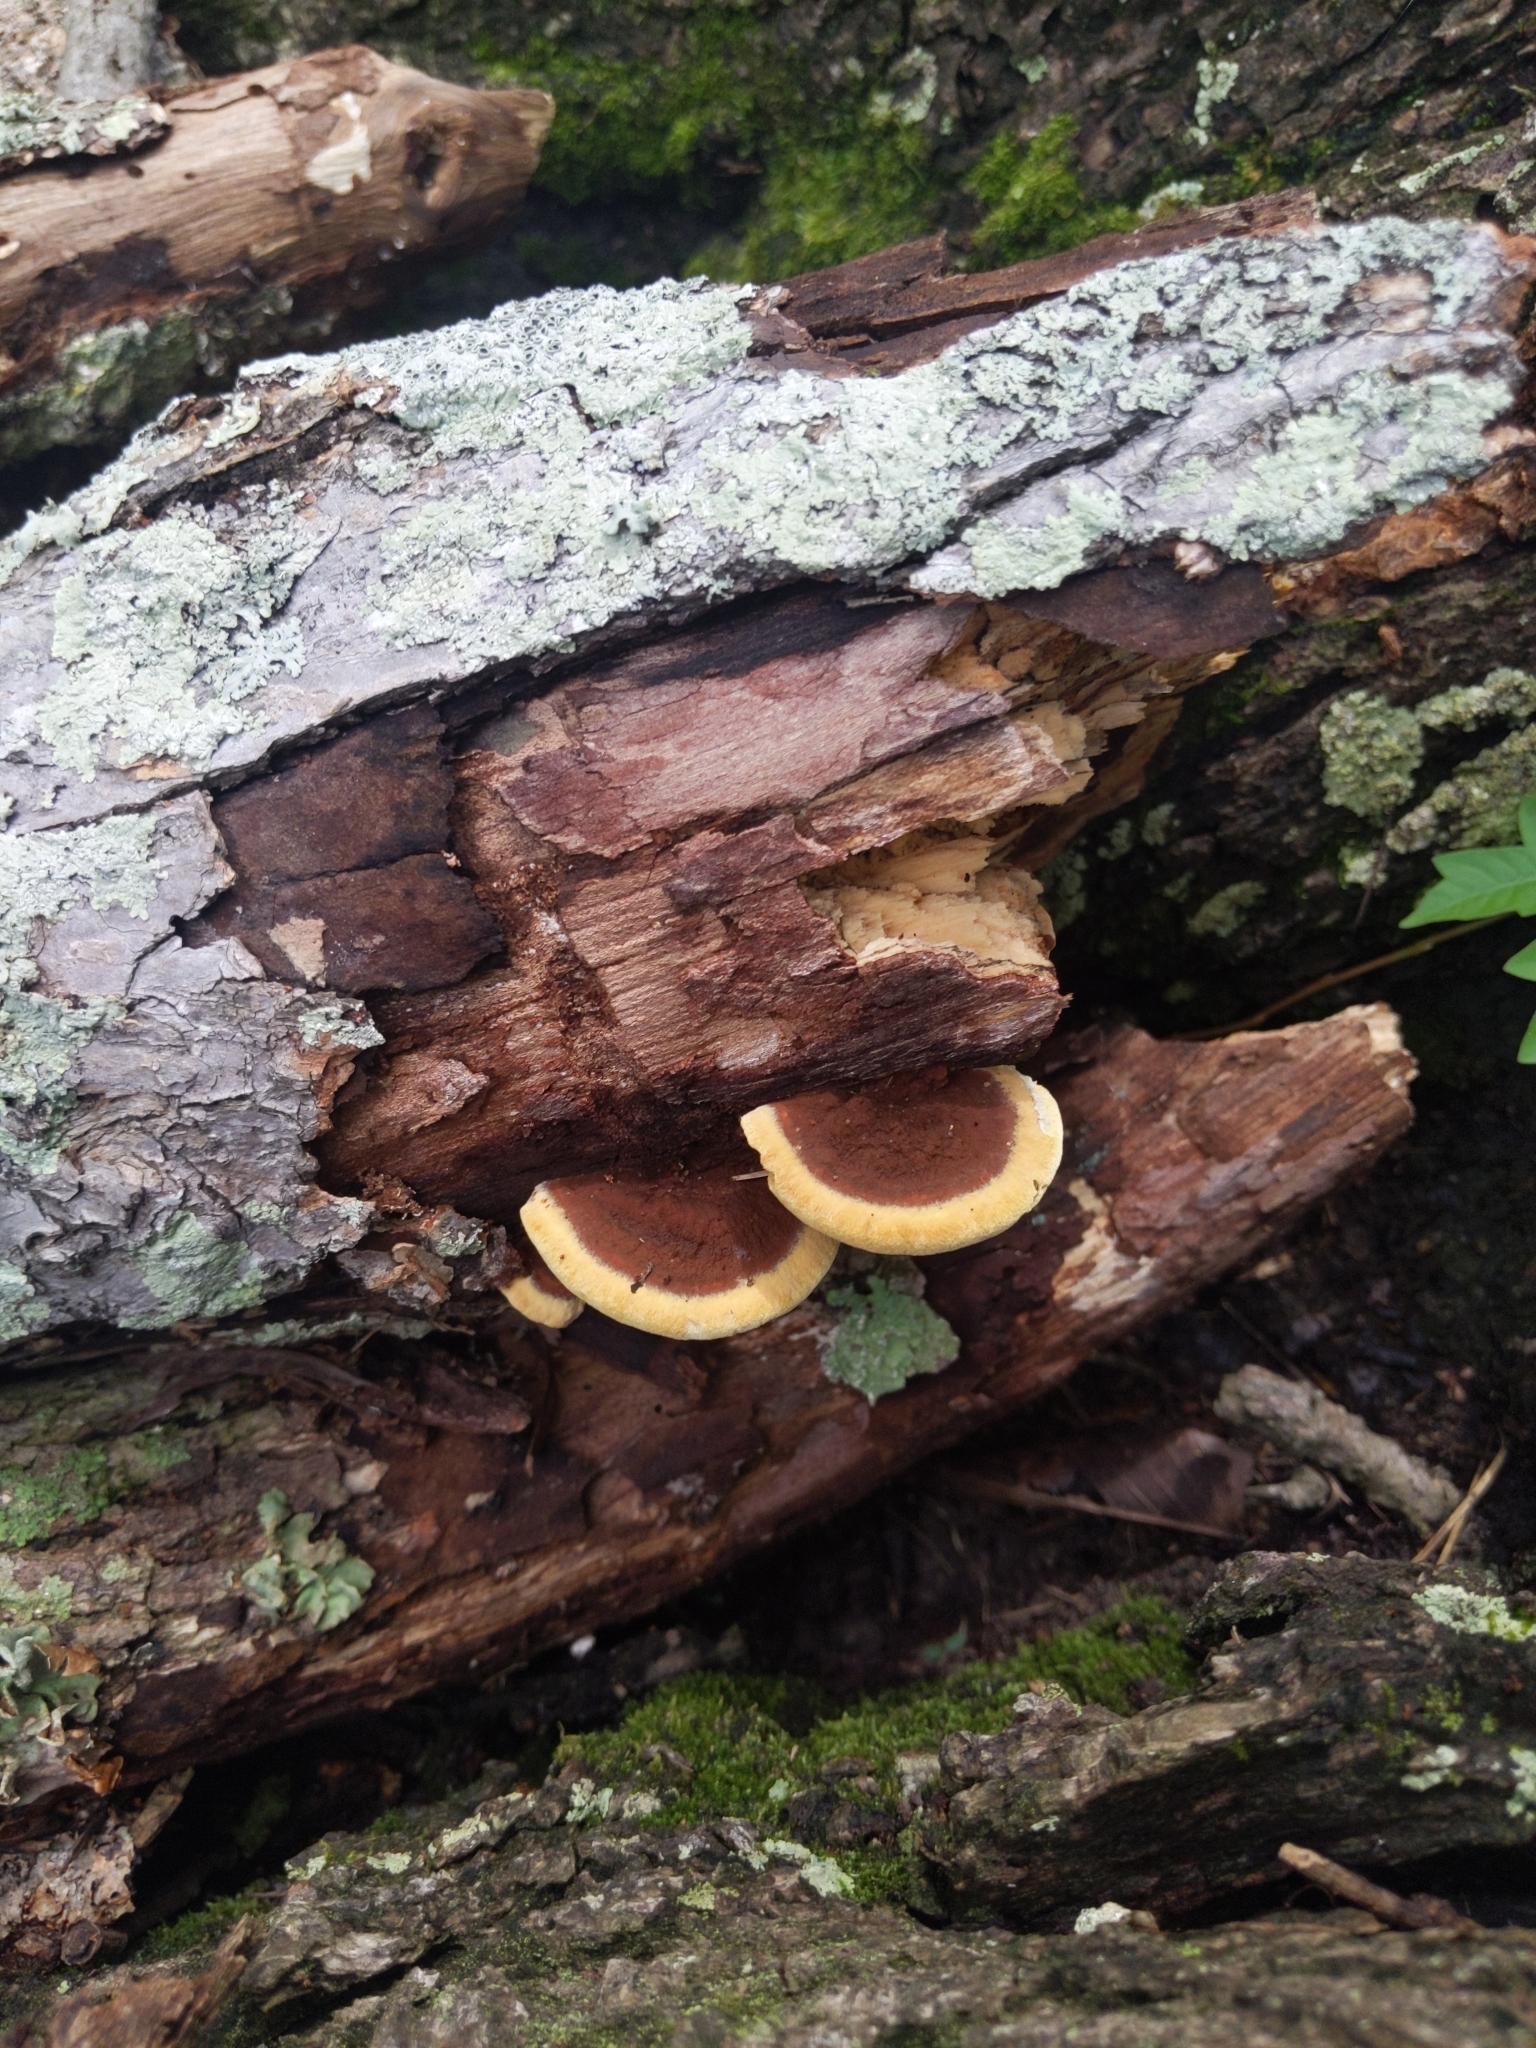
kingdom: Fungi
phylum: Basidiomycota
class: Agaricomycetes
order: Polyporales
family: Laetiporaceae
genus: Phaeolus
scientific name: Phaeolus schweinitzii
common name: Dyer's mazegill
